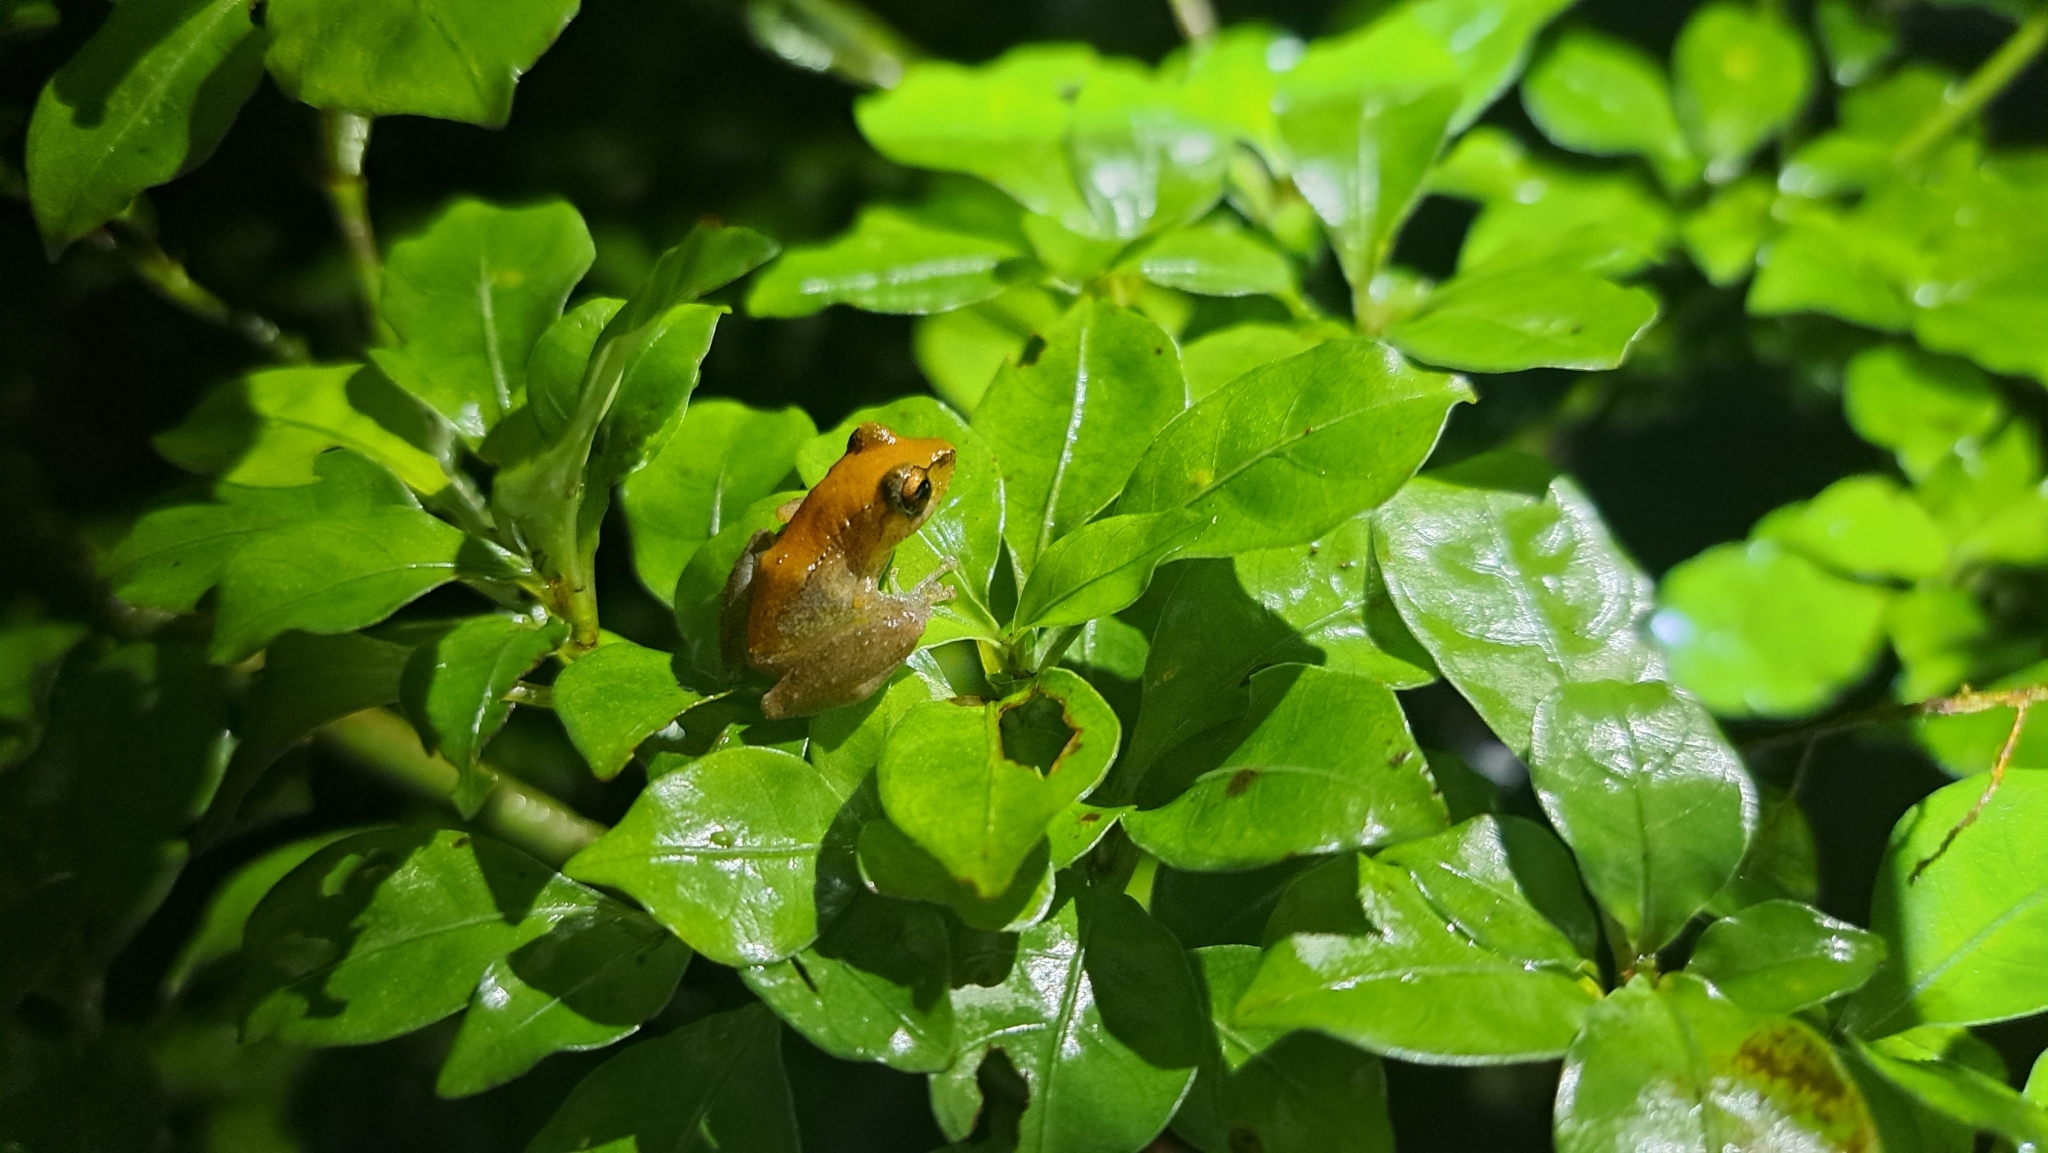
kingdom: Animalia
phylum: Chordata
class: Amphibia
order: Anura
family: Craugastoridae
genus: Pristimantis
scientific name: Pristimantis ridens
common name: Rio san juan robber frog
